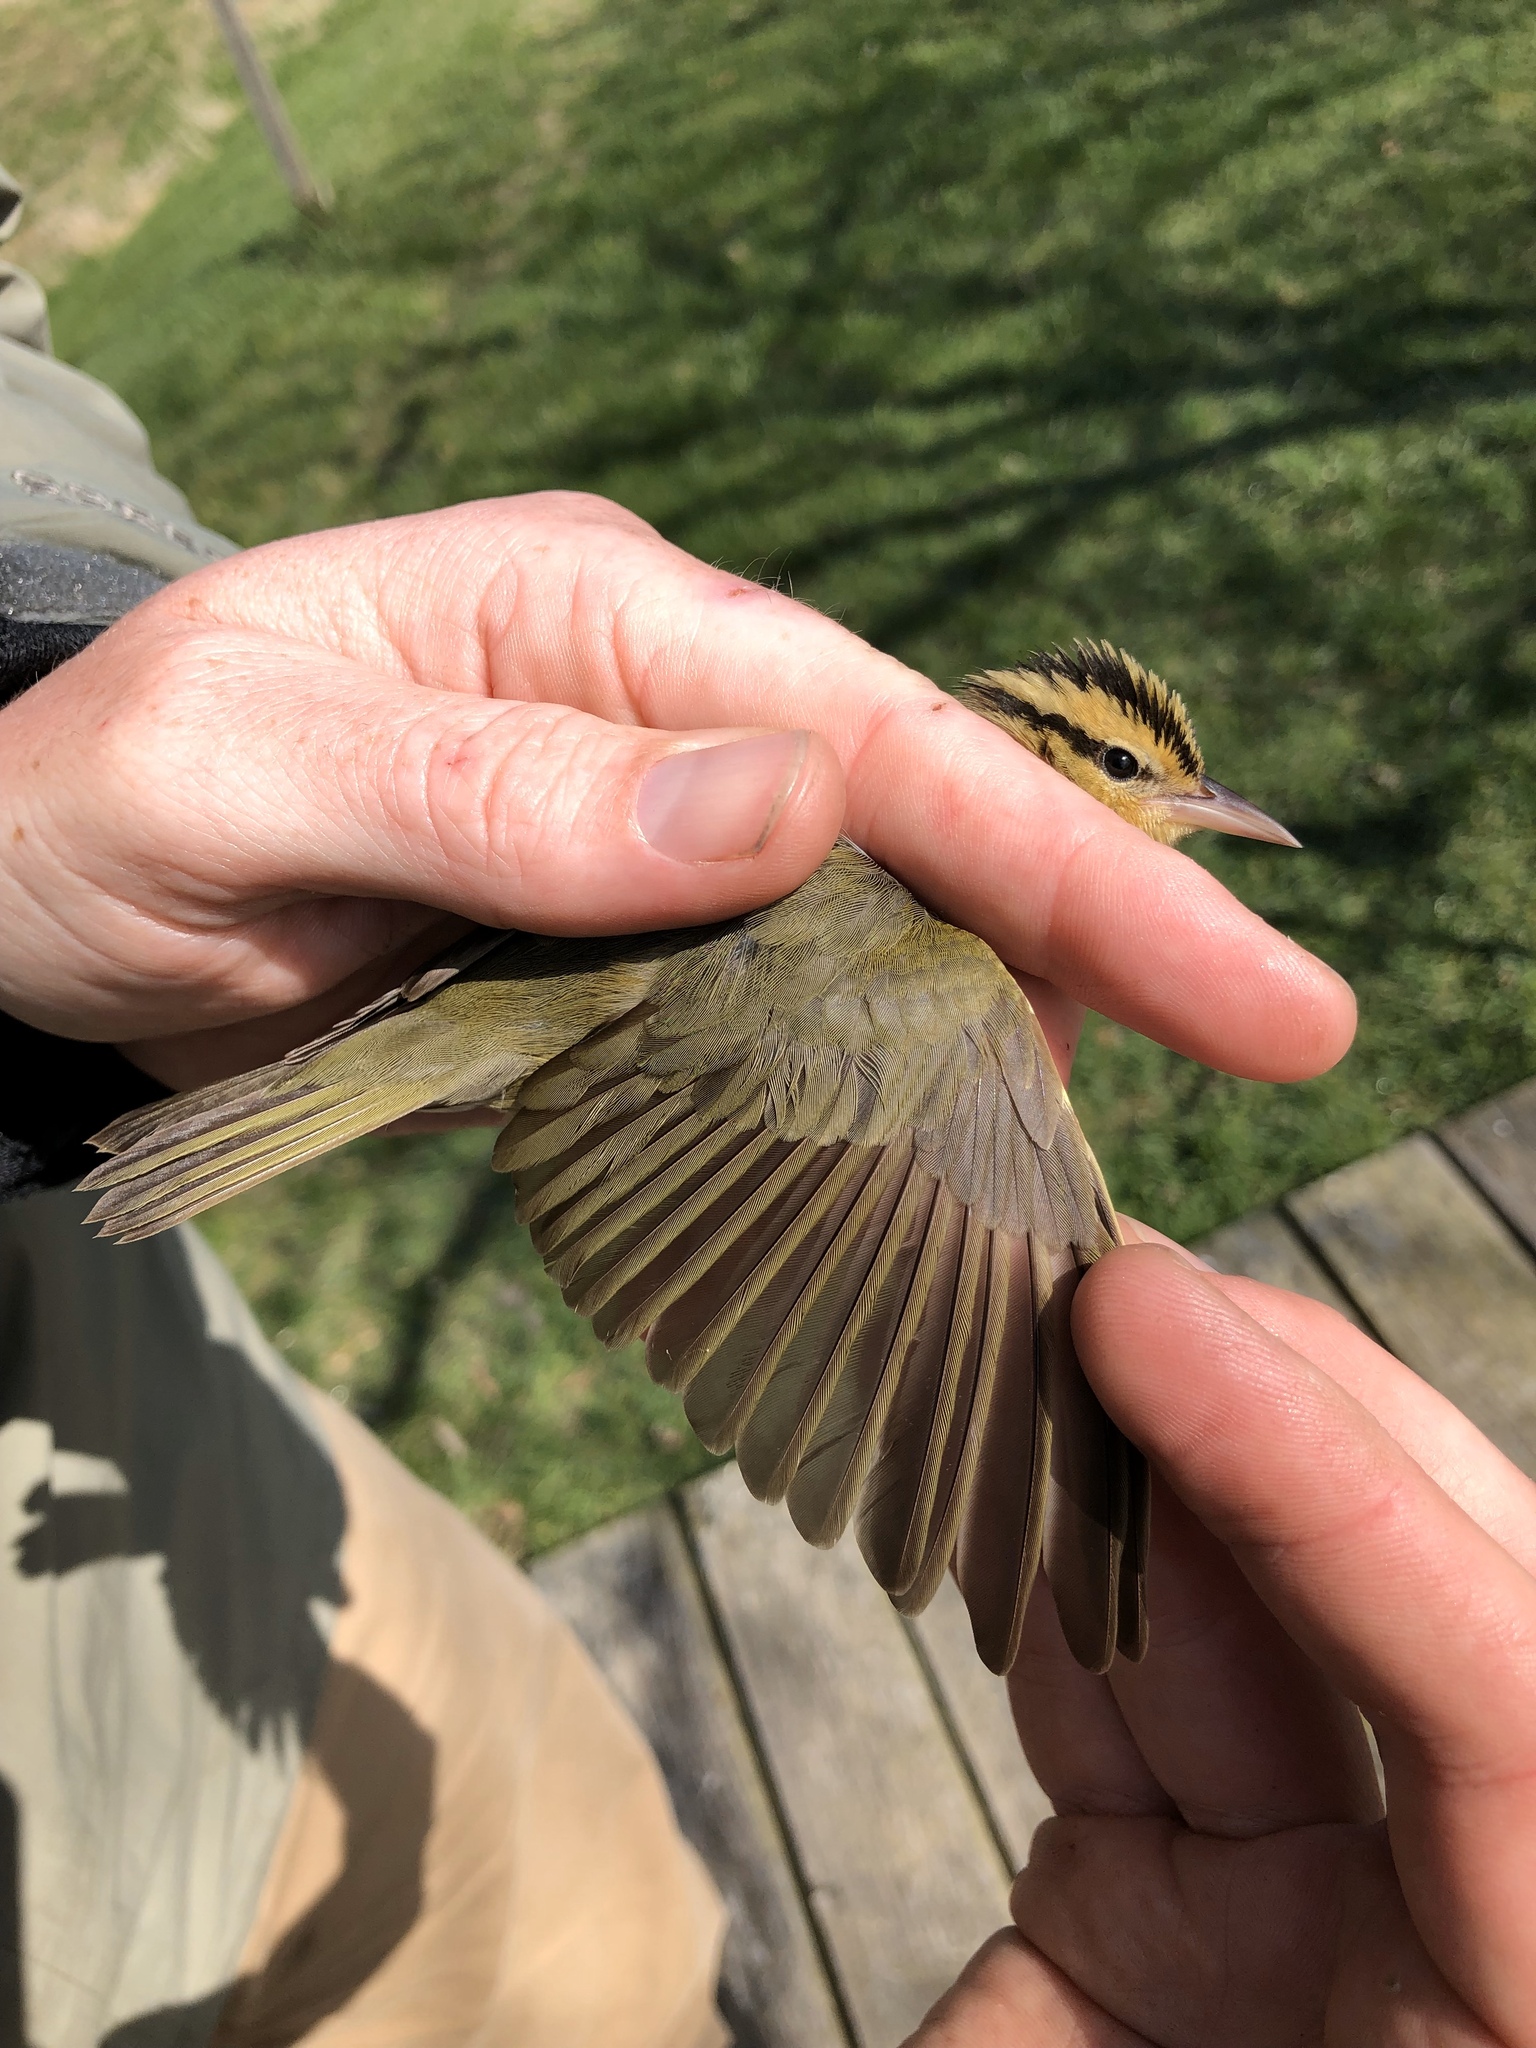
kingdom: Animalia
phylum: Chordata
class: Aves
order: Passeriformes
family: Parulidae
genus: Helmitheros
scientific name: Helmitheros vermivorum
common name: Worm-eating warbler
